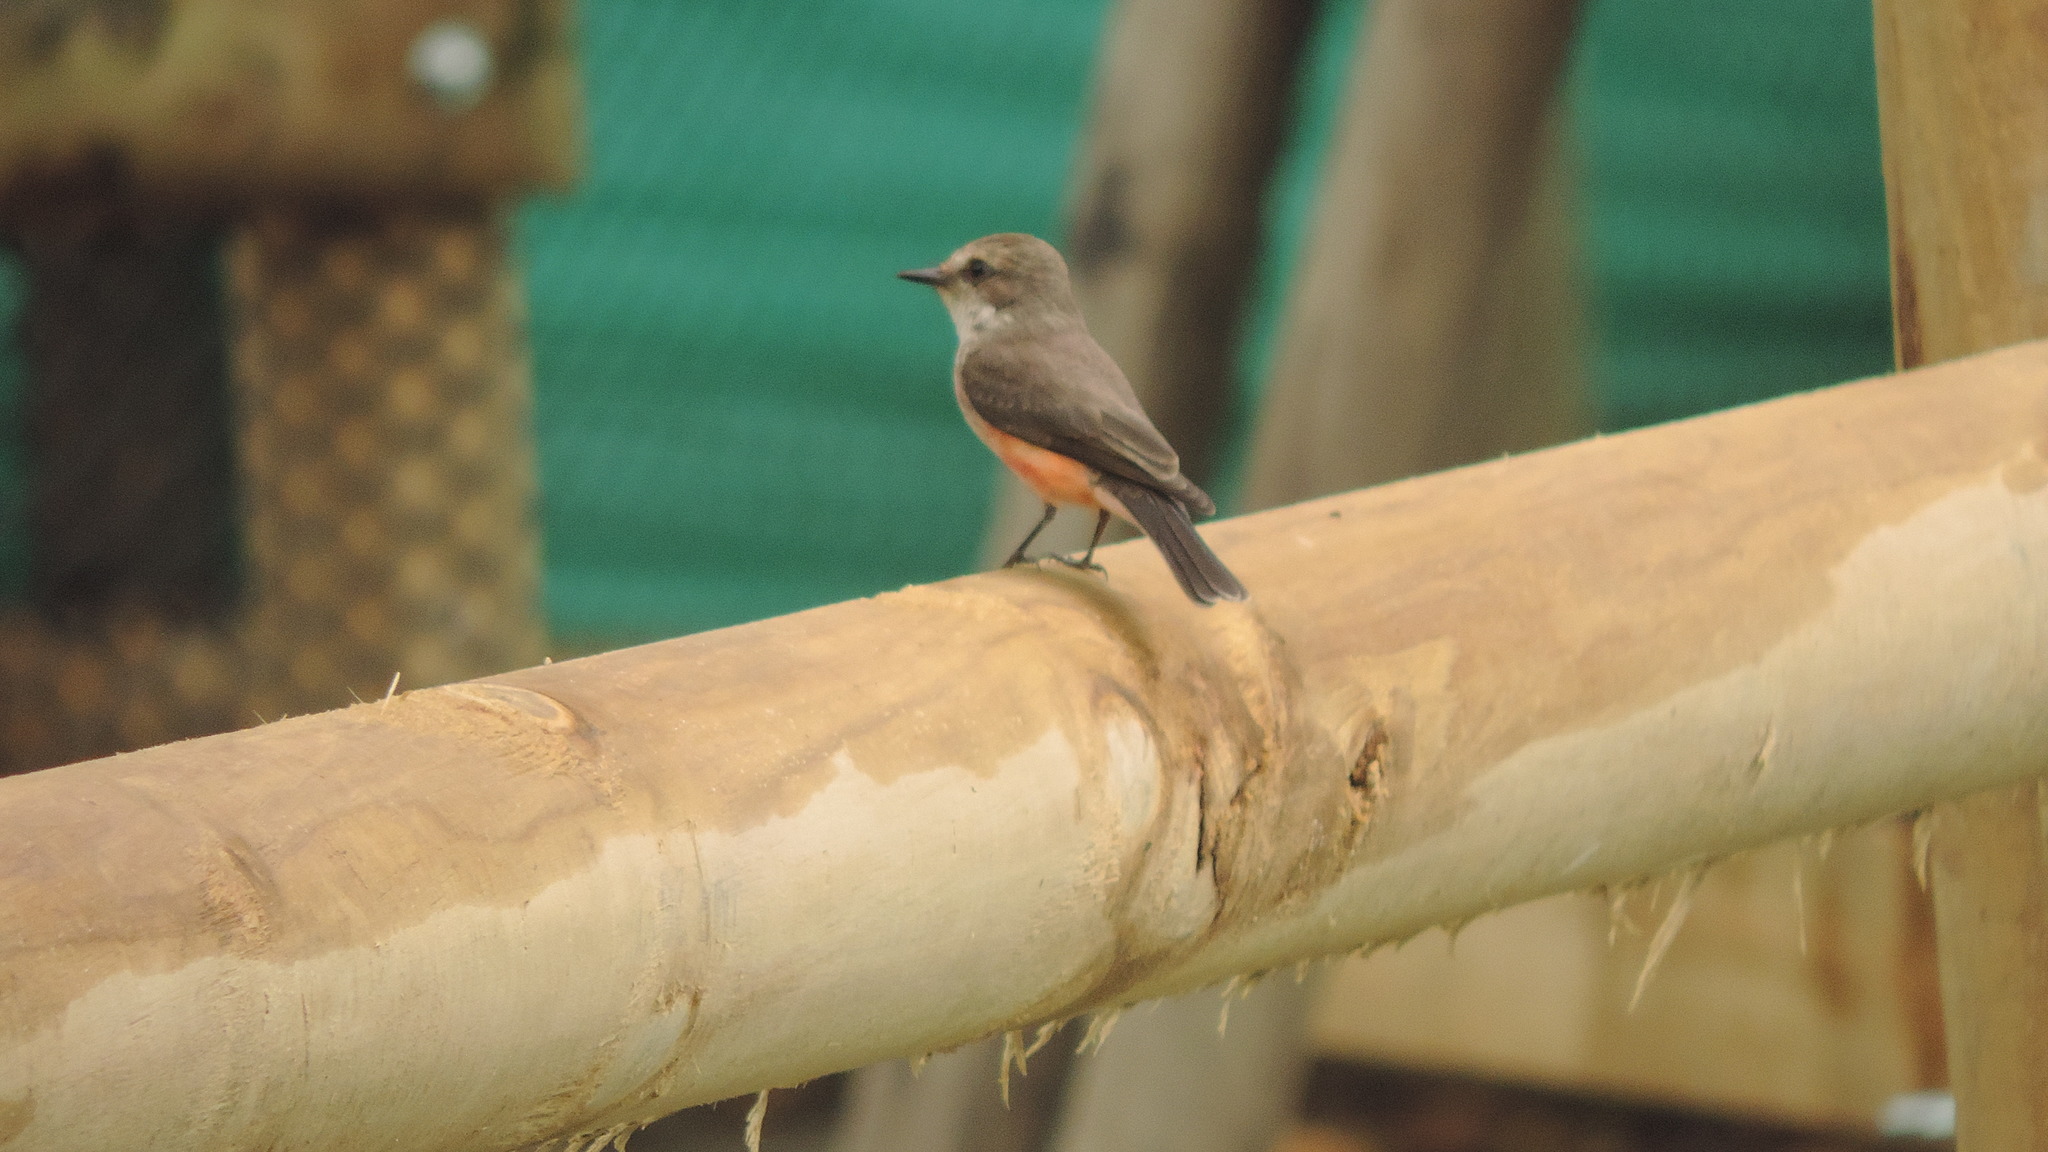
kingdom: Animalia
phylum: Chordata
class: Aves
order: Passeriformes
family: Tyrannidae
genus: Pyrocephalus
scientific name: Pyrocephalus rubinus
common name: Vermilion flycatcher
